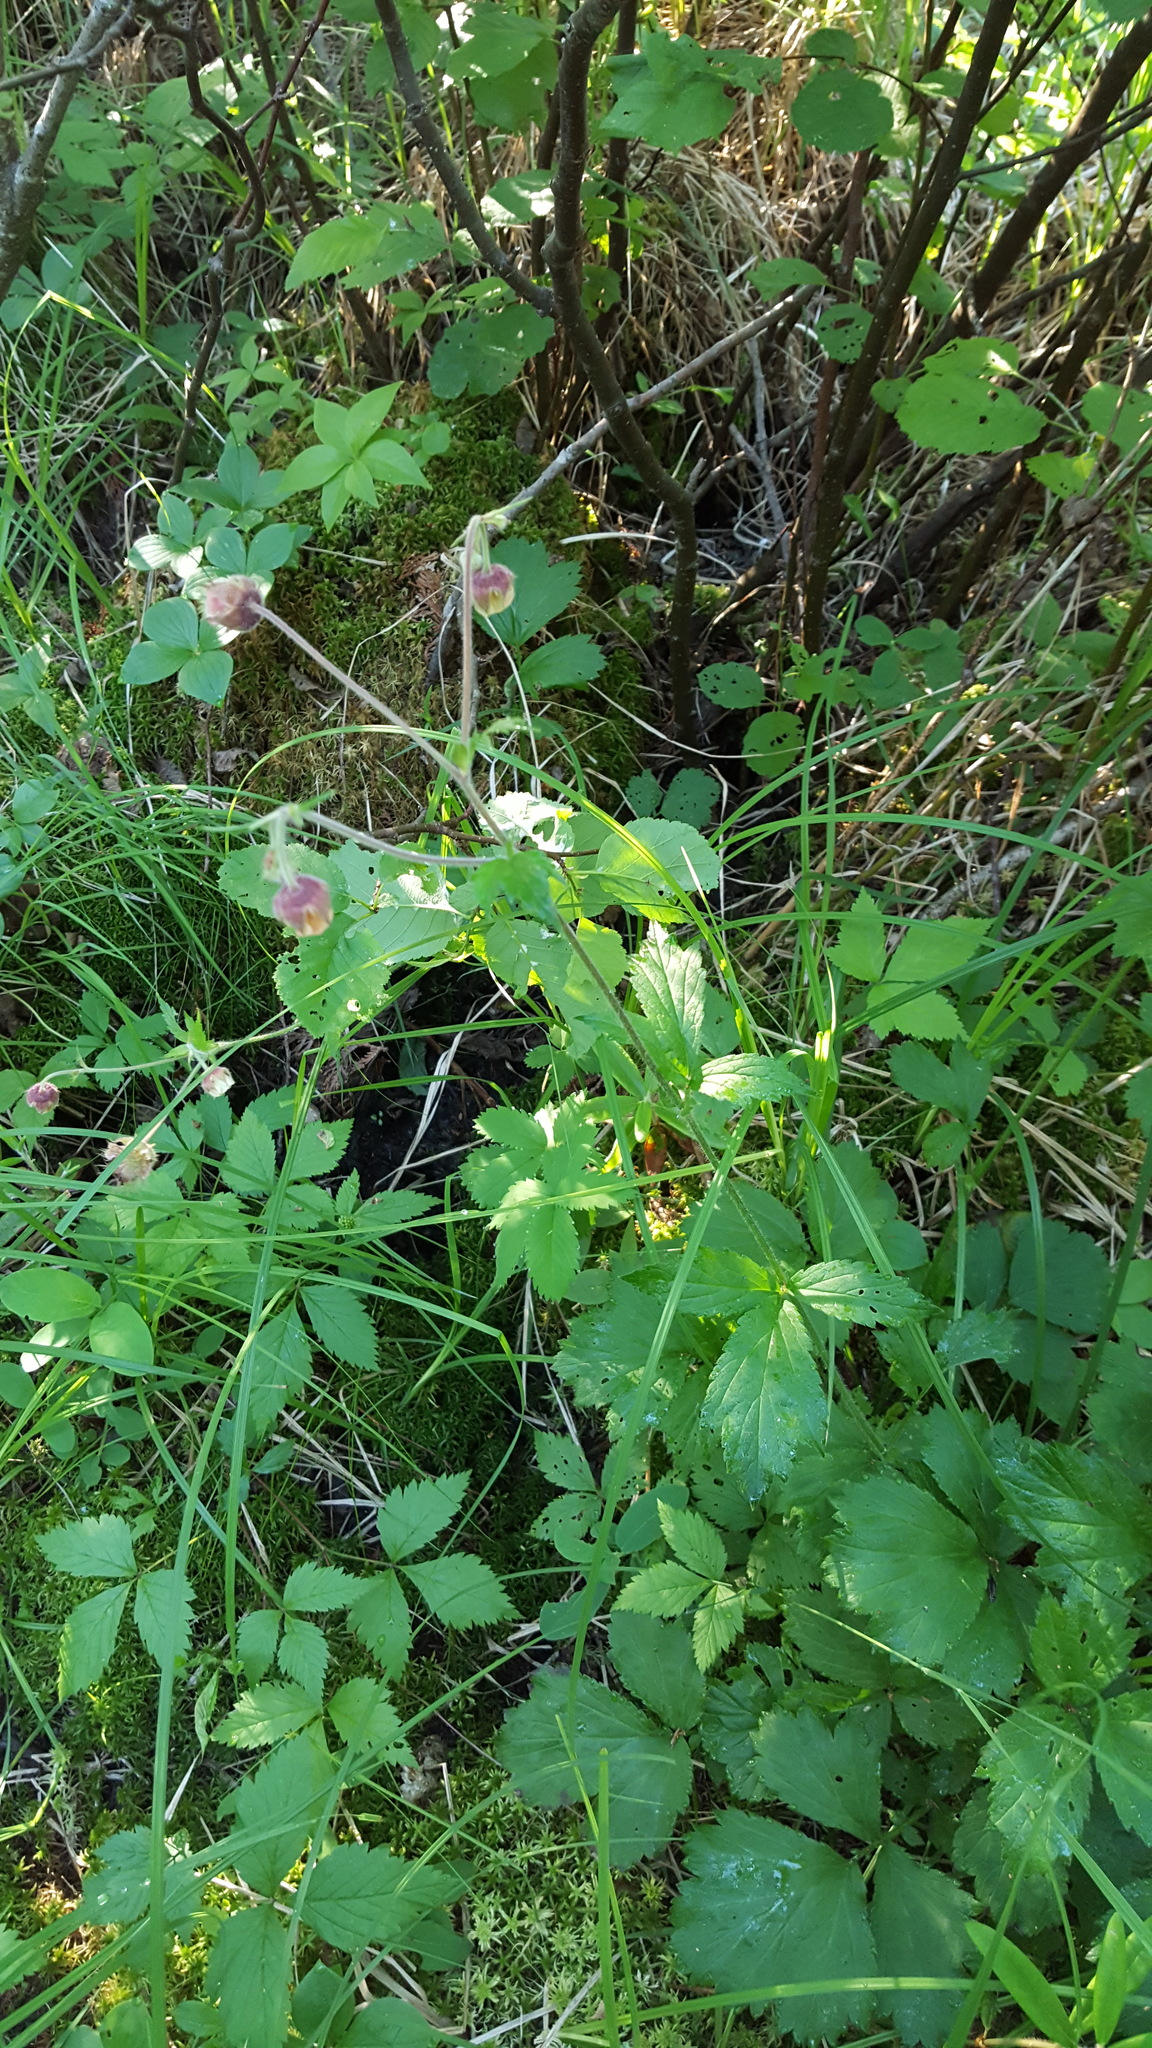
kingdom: Plantae
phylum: Tracheophyta
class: Magnoliopsida
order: Rosales
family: Rosaceae
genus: Geum
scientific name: Geum rivale
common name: Water avens
